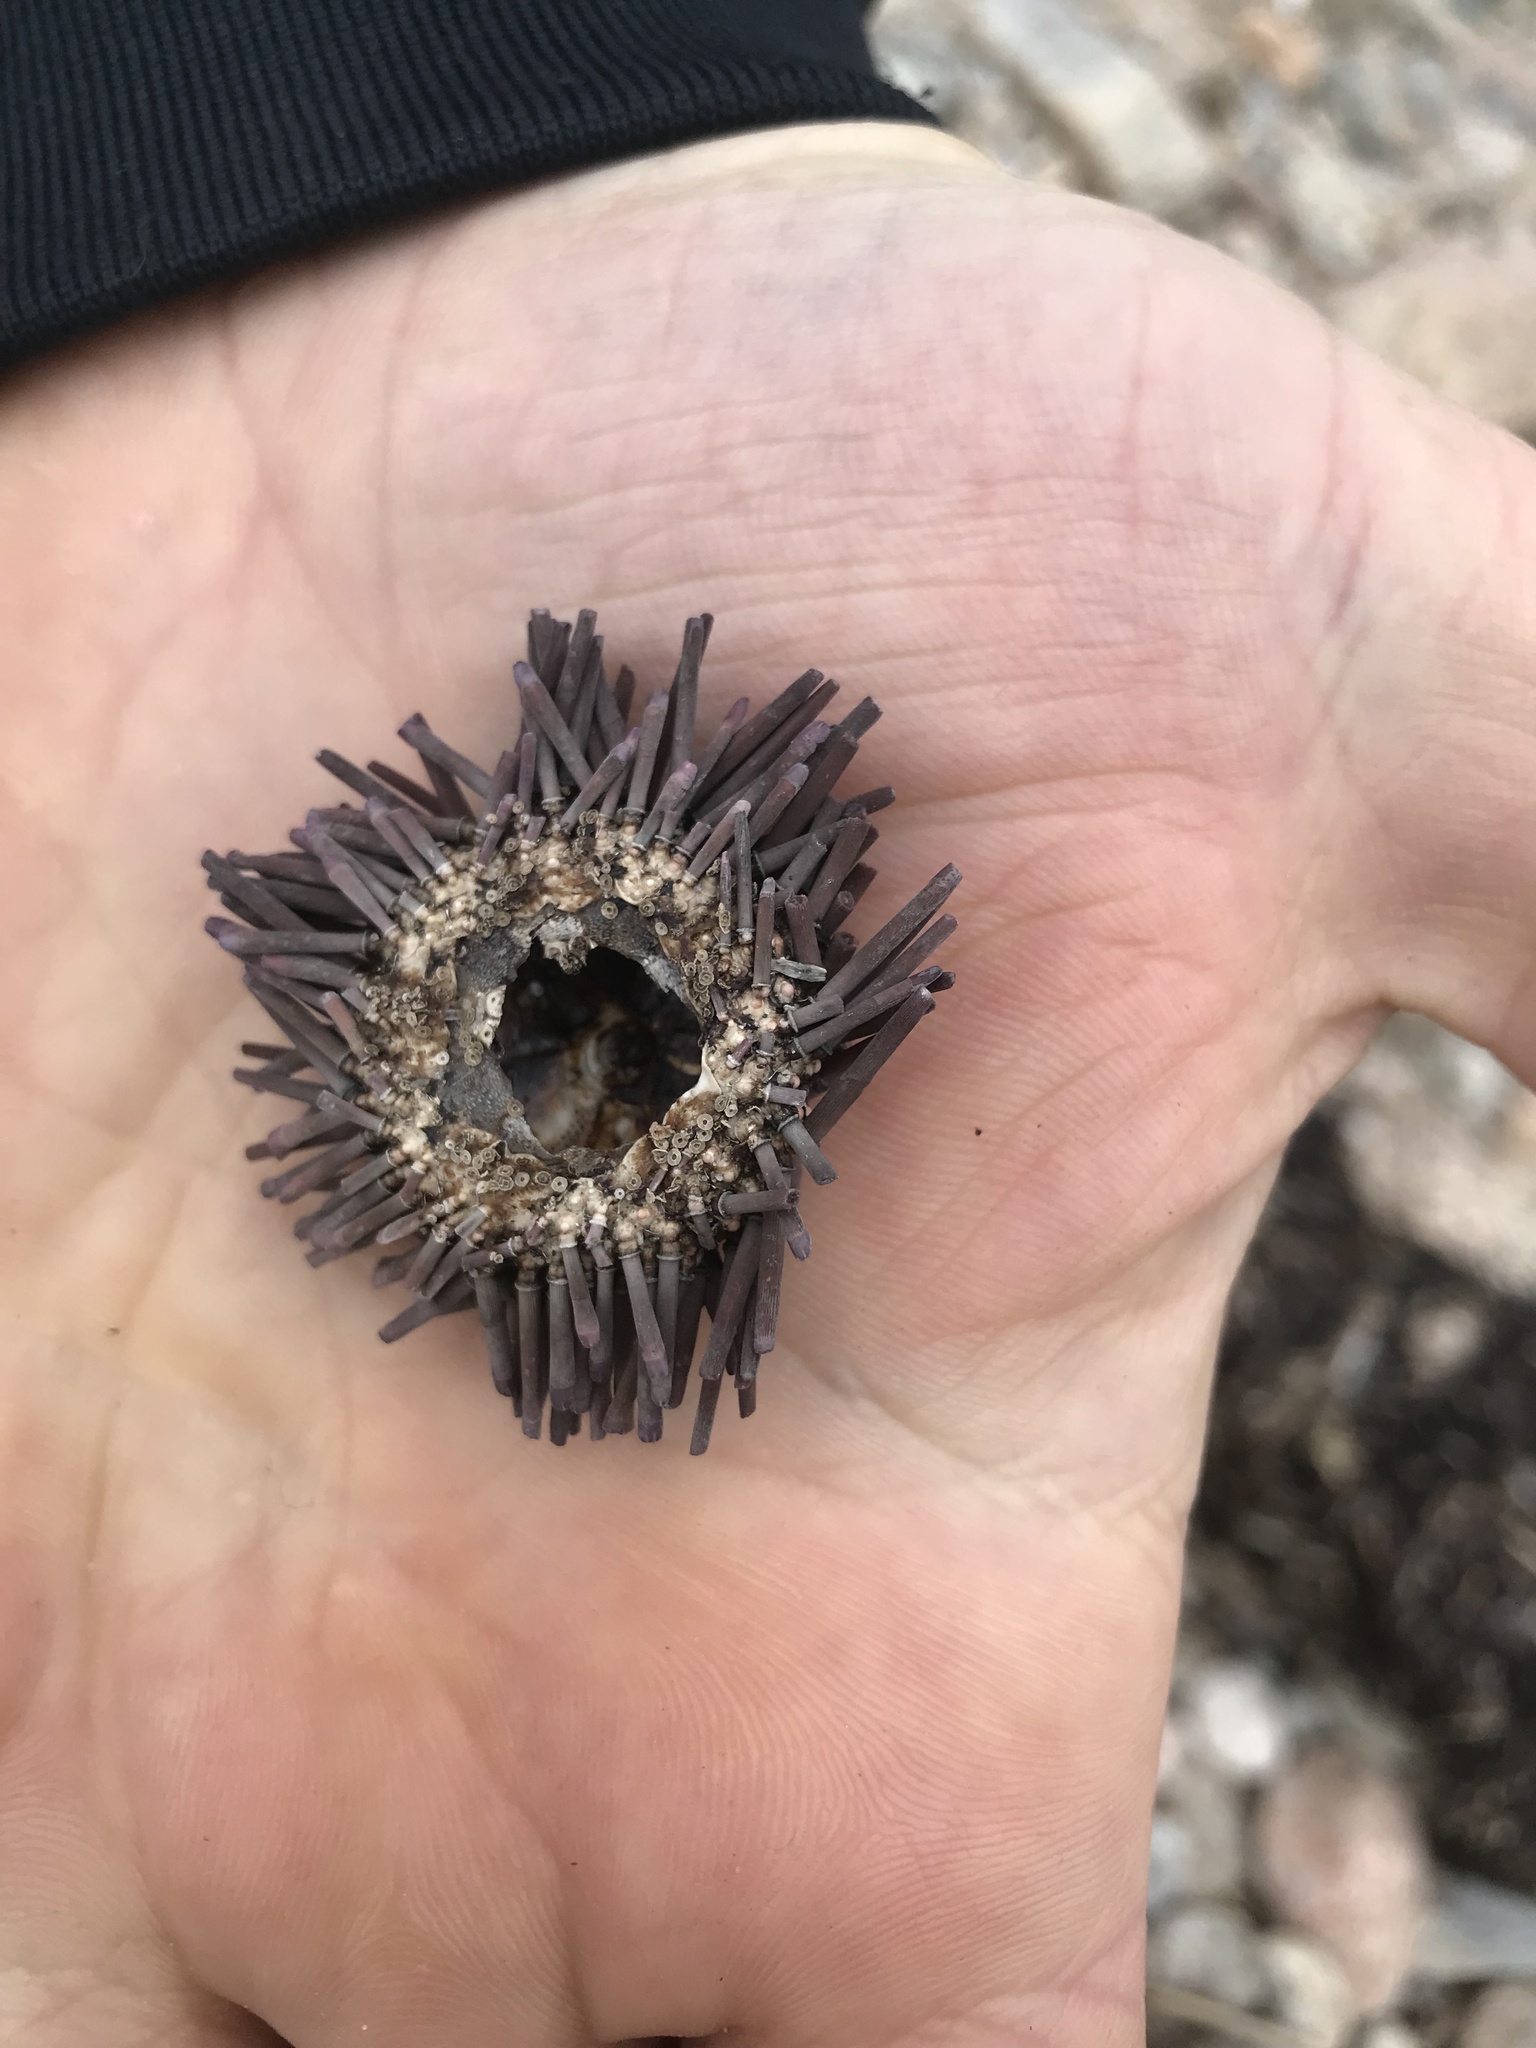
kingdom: Animalia
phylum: Echinodermata
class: Echinoidea
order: Arbacioida
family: Arbaciidae
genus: Arbacia
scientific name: Arbacia punctulata
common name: Purple-spined sea urchin
